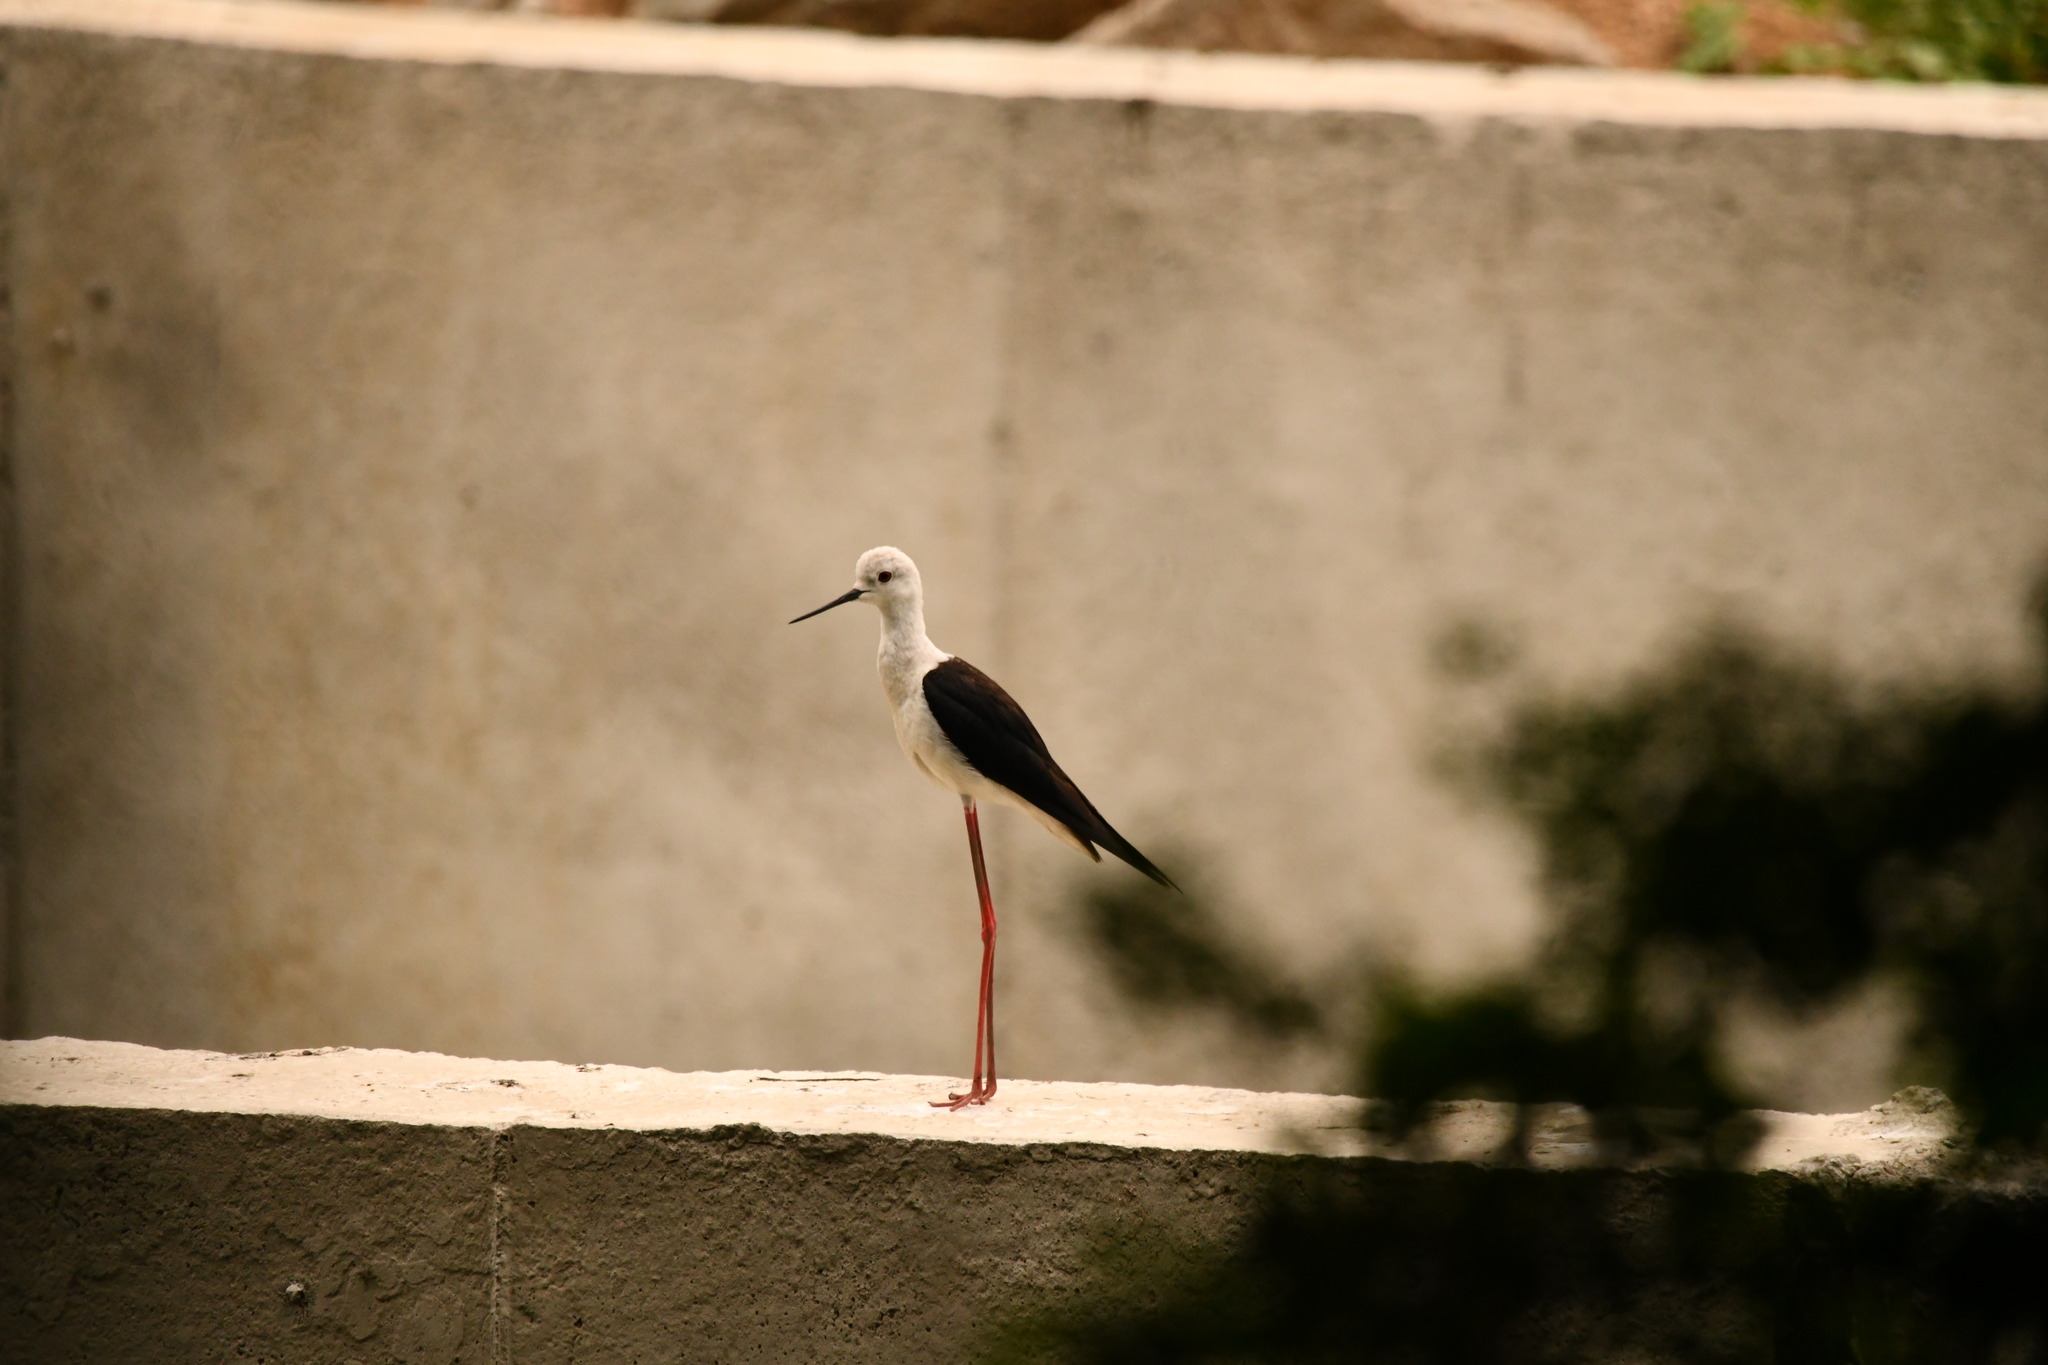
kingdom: Animalia
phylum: Chordata
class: Aves
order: Charadriiformes
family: Recurvirostridae
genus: Himantopus
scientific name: Himantopus himantopus
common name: Black-winged stilt
